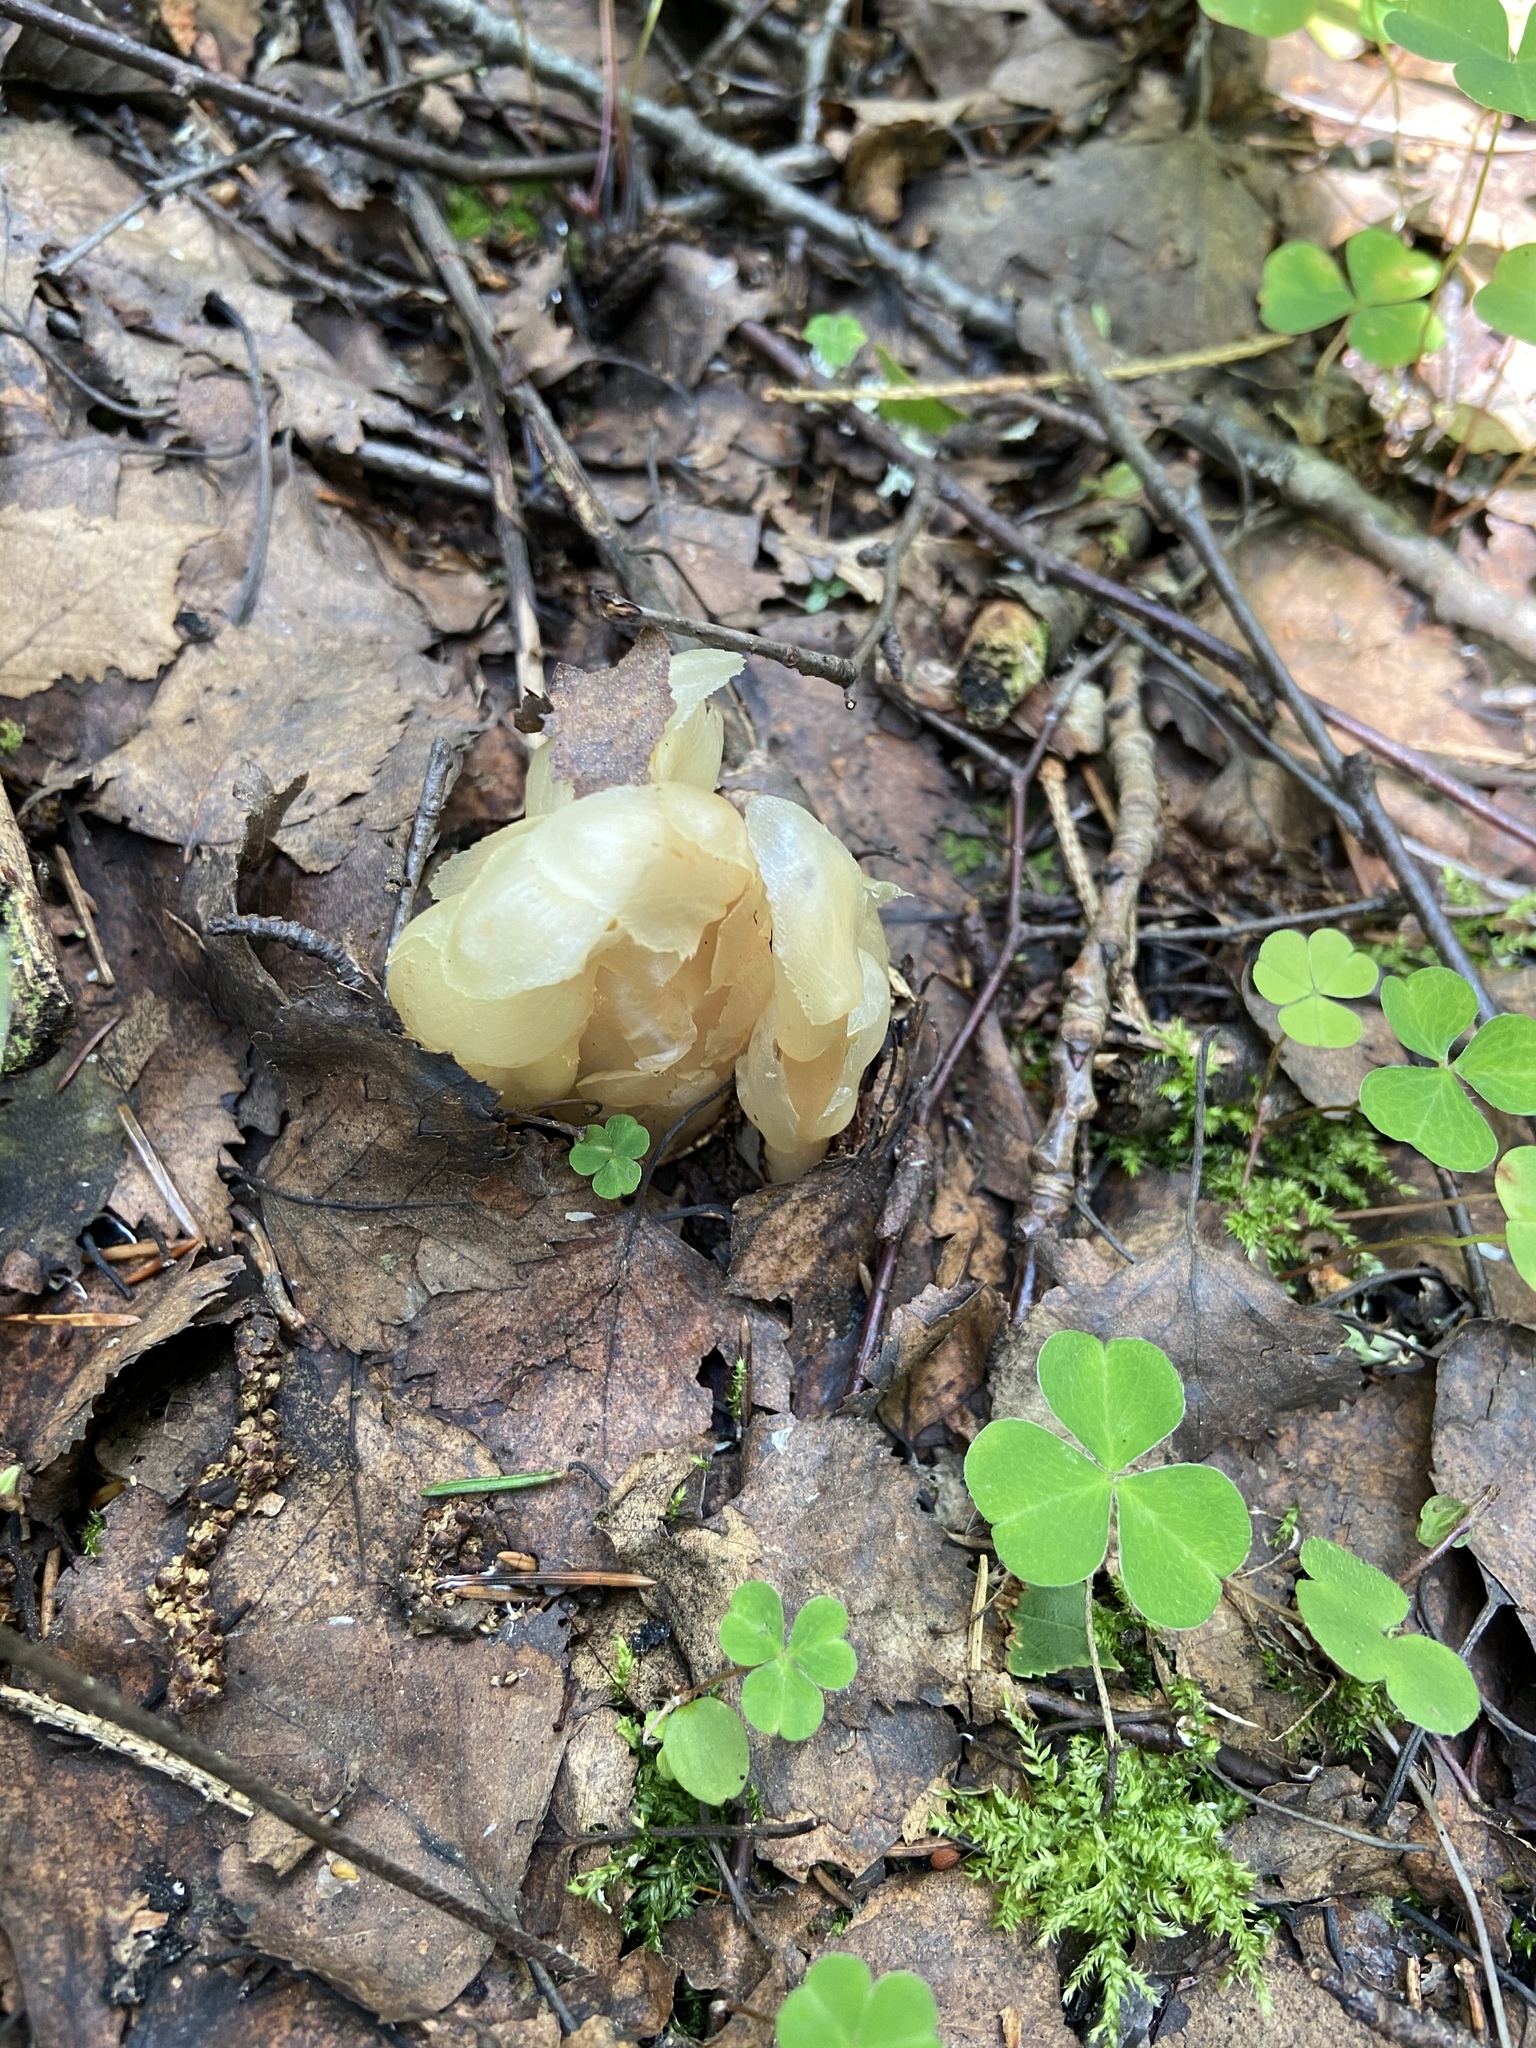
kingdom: Plantae
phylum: Tracheophyta
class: Magnoliopsida
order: Ericales
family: Ericaceae
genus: Hypopitys
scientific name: Hypopitys monotropa
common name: Yellow bird's-nest
